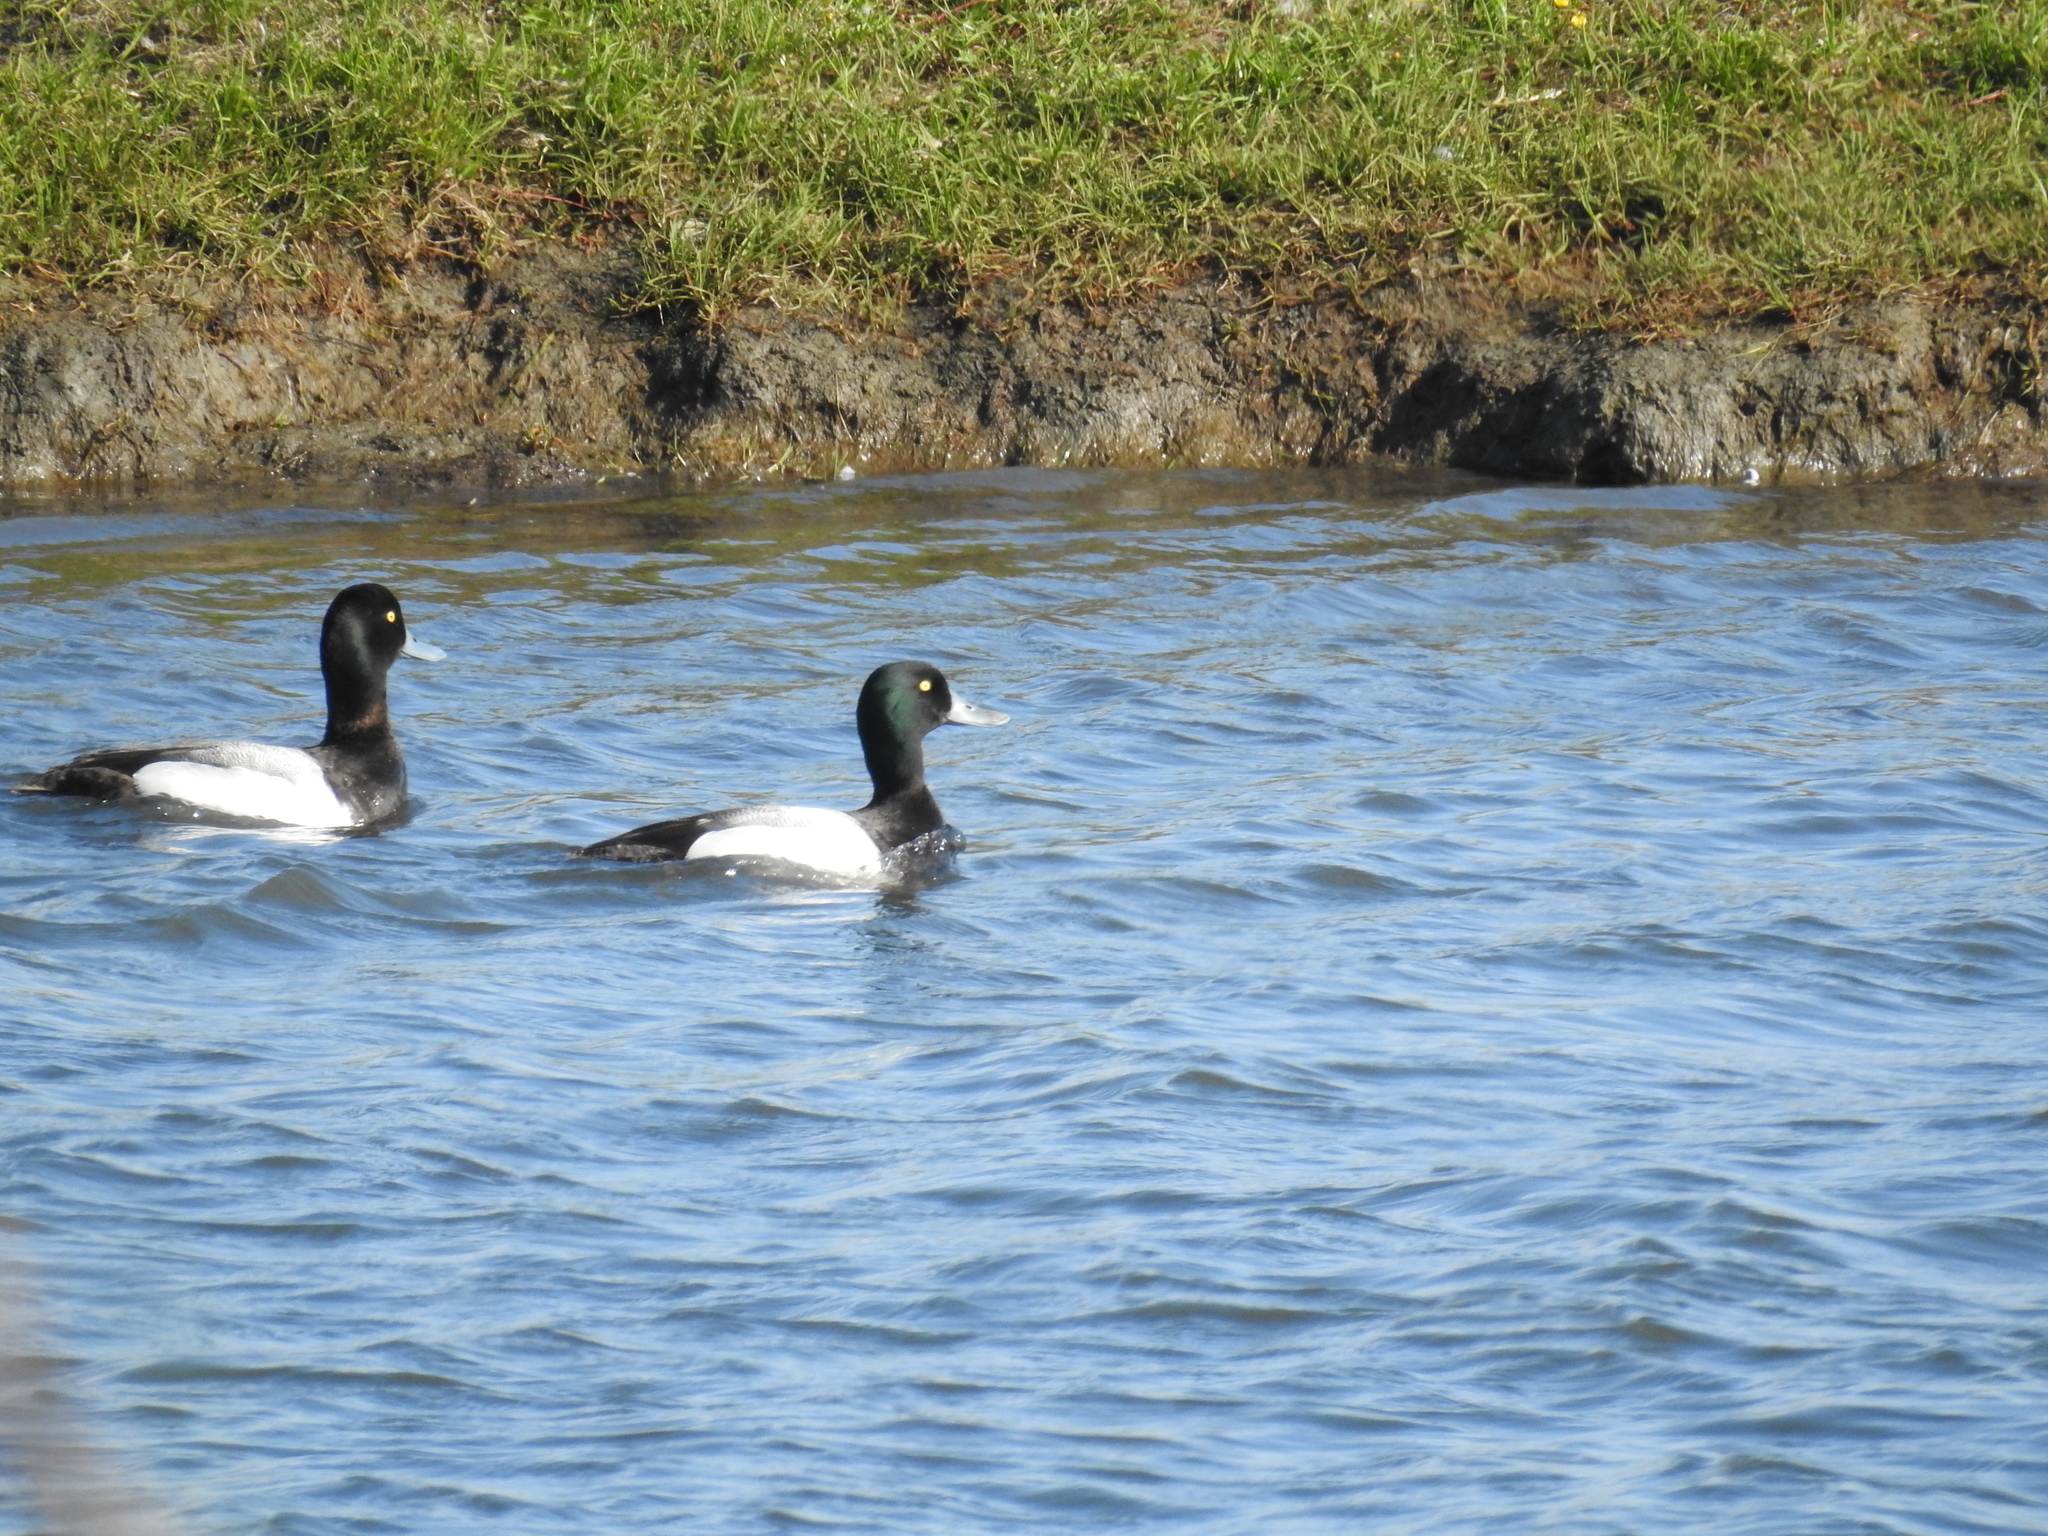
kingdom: Animalia
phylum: Chordata
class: Aves
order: Anseriformes
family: Anatidae
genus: Aythya
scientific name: Aythya marila
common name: Greater scaup
